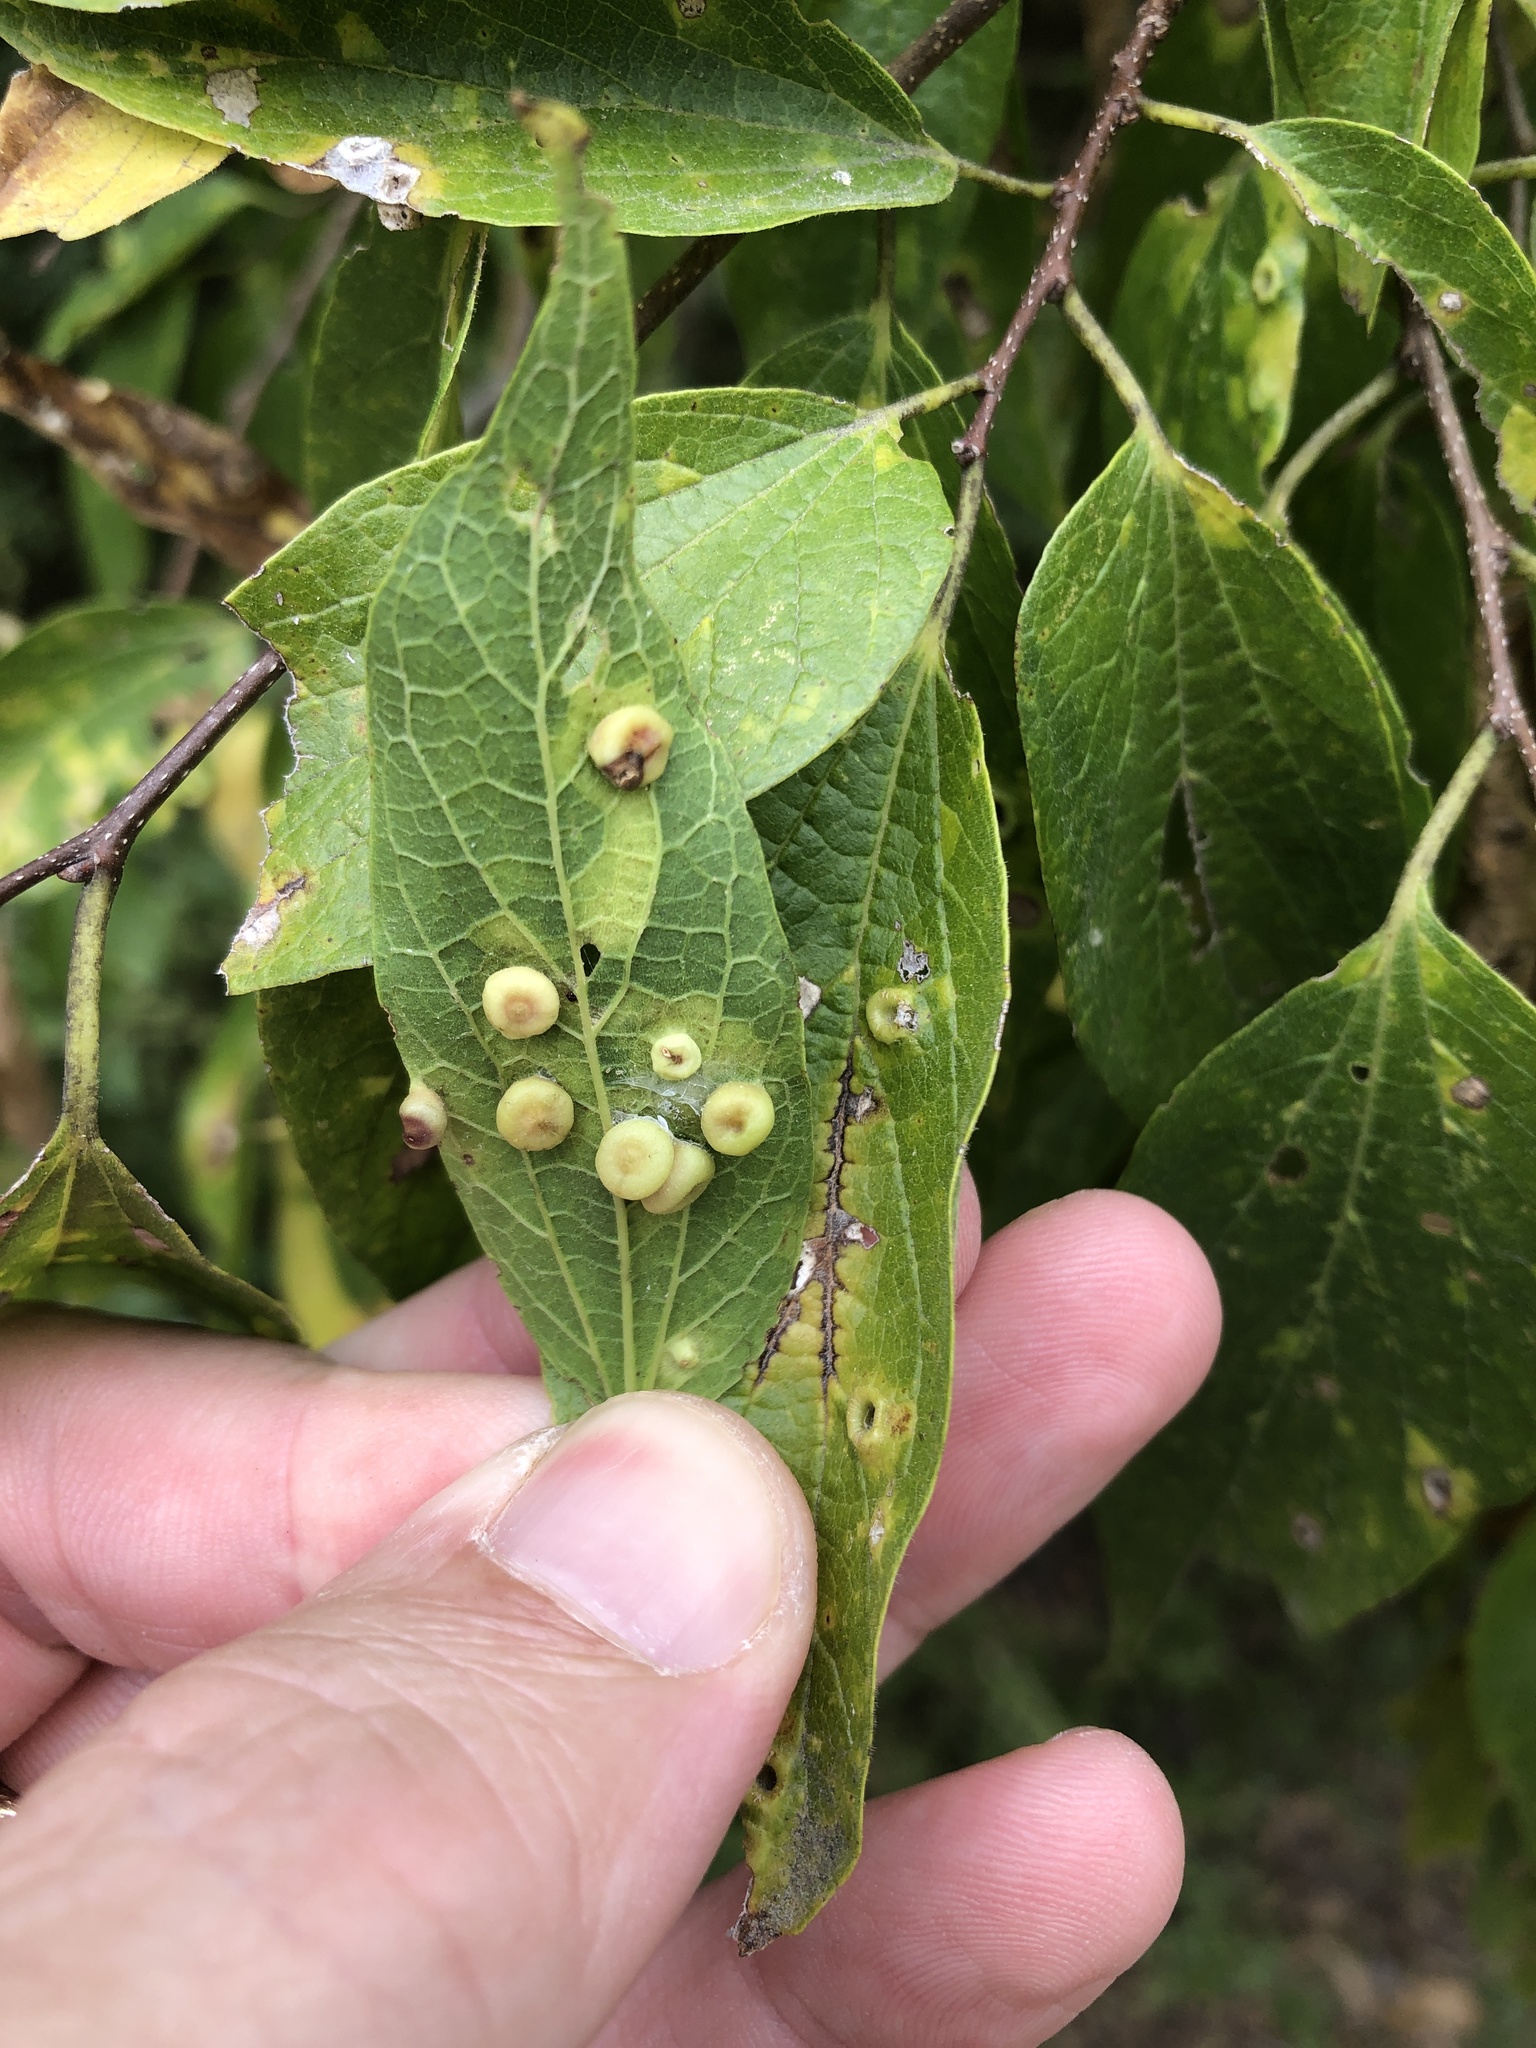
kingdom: Animalia
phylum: Arthropoda
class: Insecta
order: Hemiptera
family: Aphalaridae
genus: Pachypsylla
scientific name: Pachypsylla celtidismamma
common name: Hackberry nipplegall psyllid
